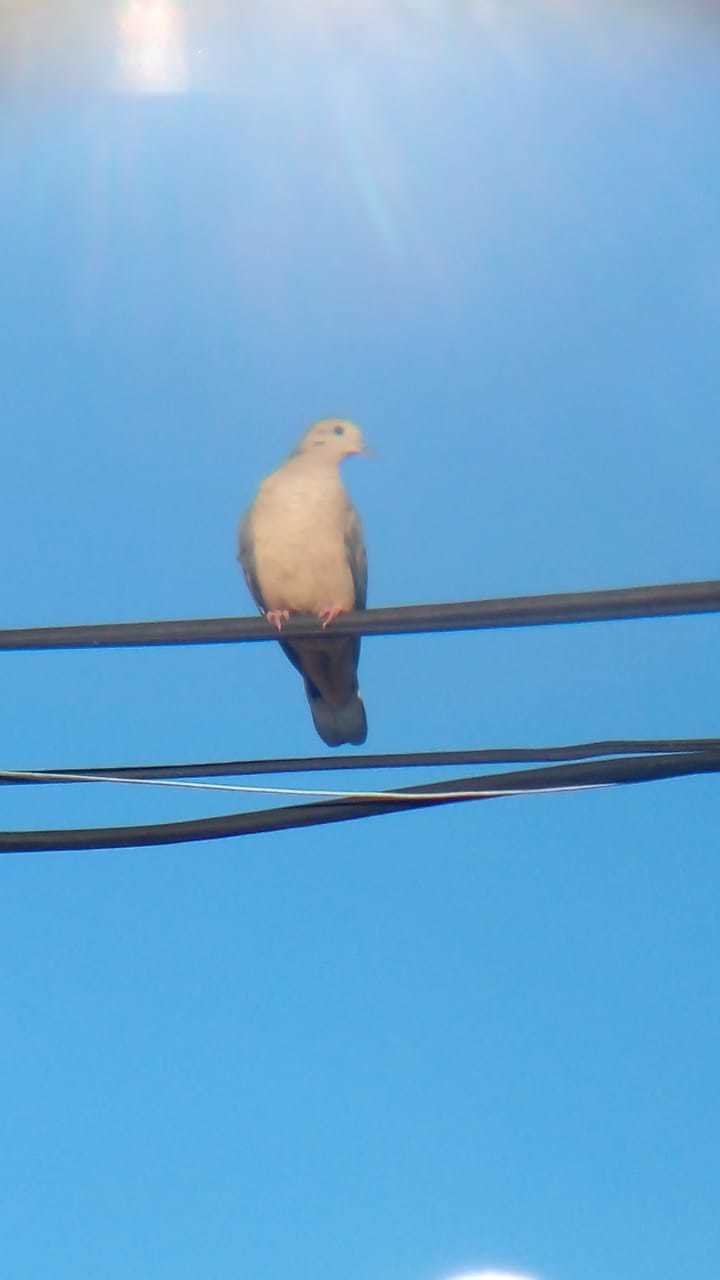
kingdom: Animalia
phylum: Chordata
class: Aves
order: Columbiformes
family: Columbidae
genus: Zenaida
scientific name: Zenaida auriculata
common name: Eared dove
